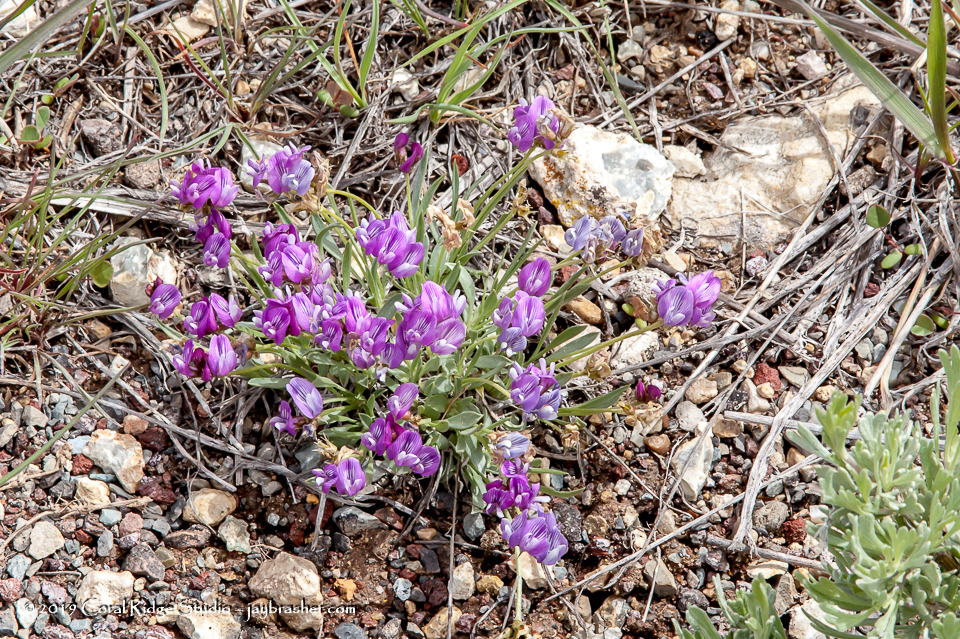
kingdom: Plantae
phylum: Tracheophyta
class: Magnoliopsida
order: Fabales
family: Fabaceae
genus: Astragalus
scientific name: Astragalus spatulatus
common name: Draba milk-vetch
